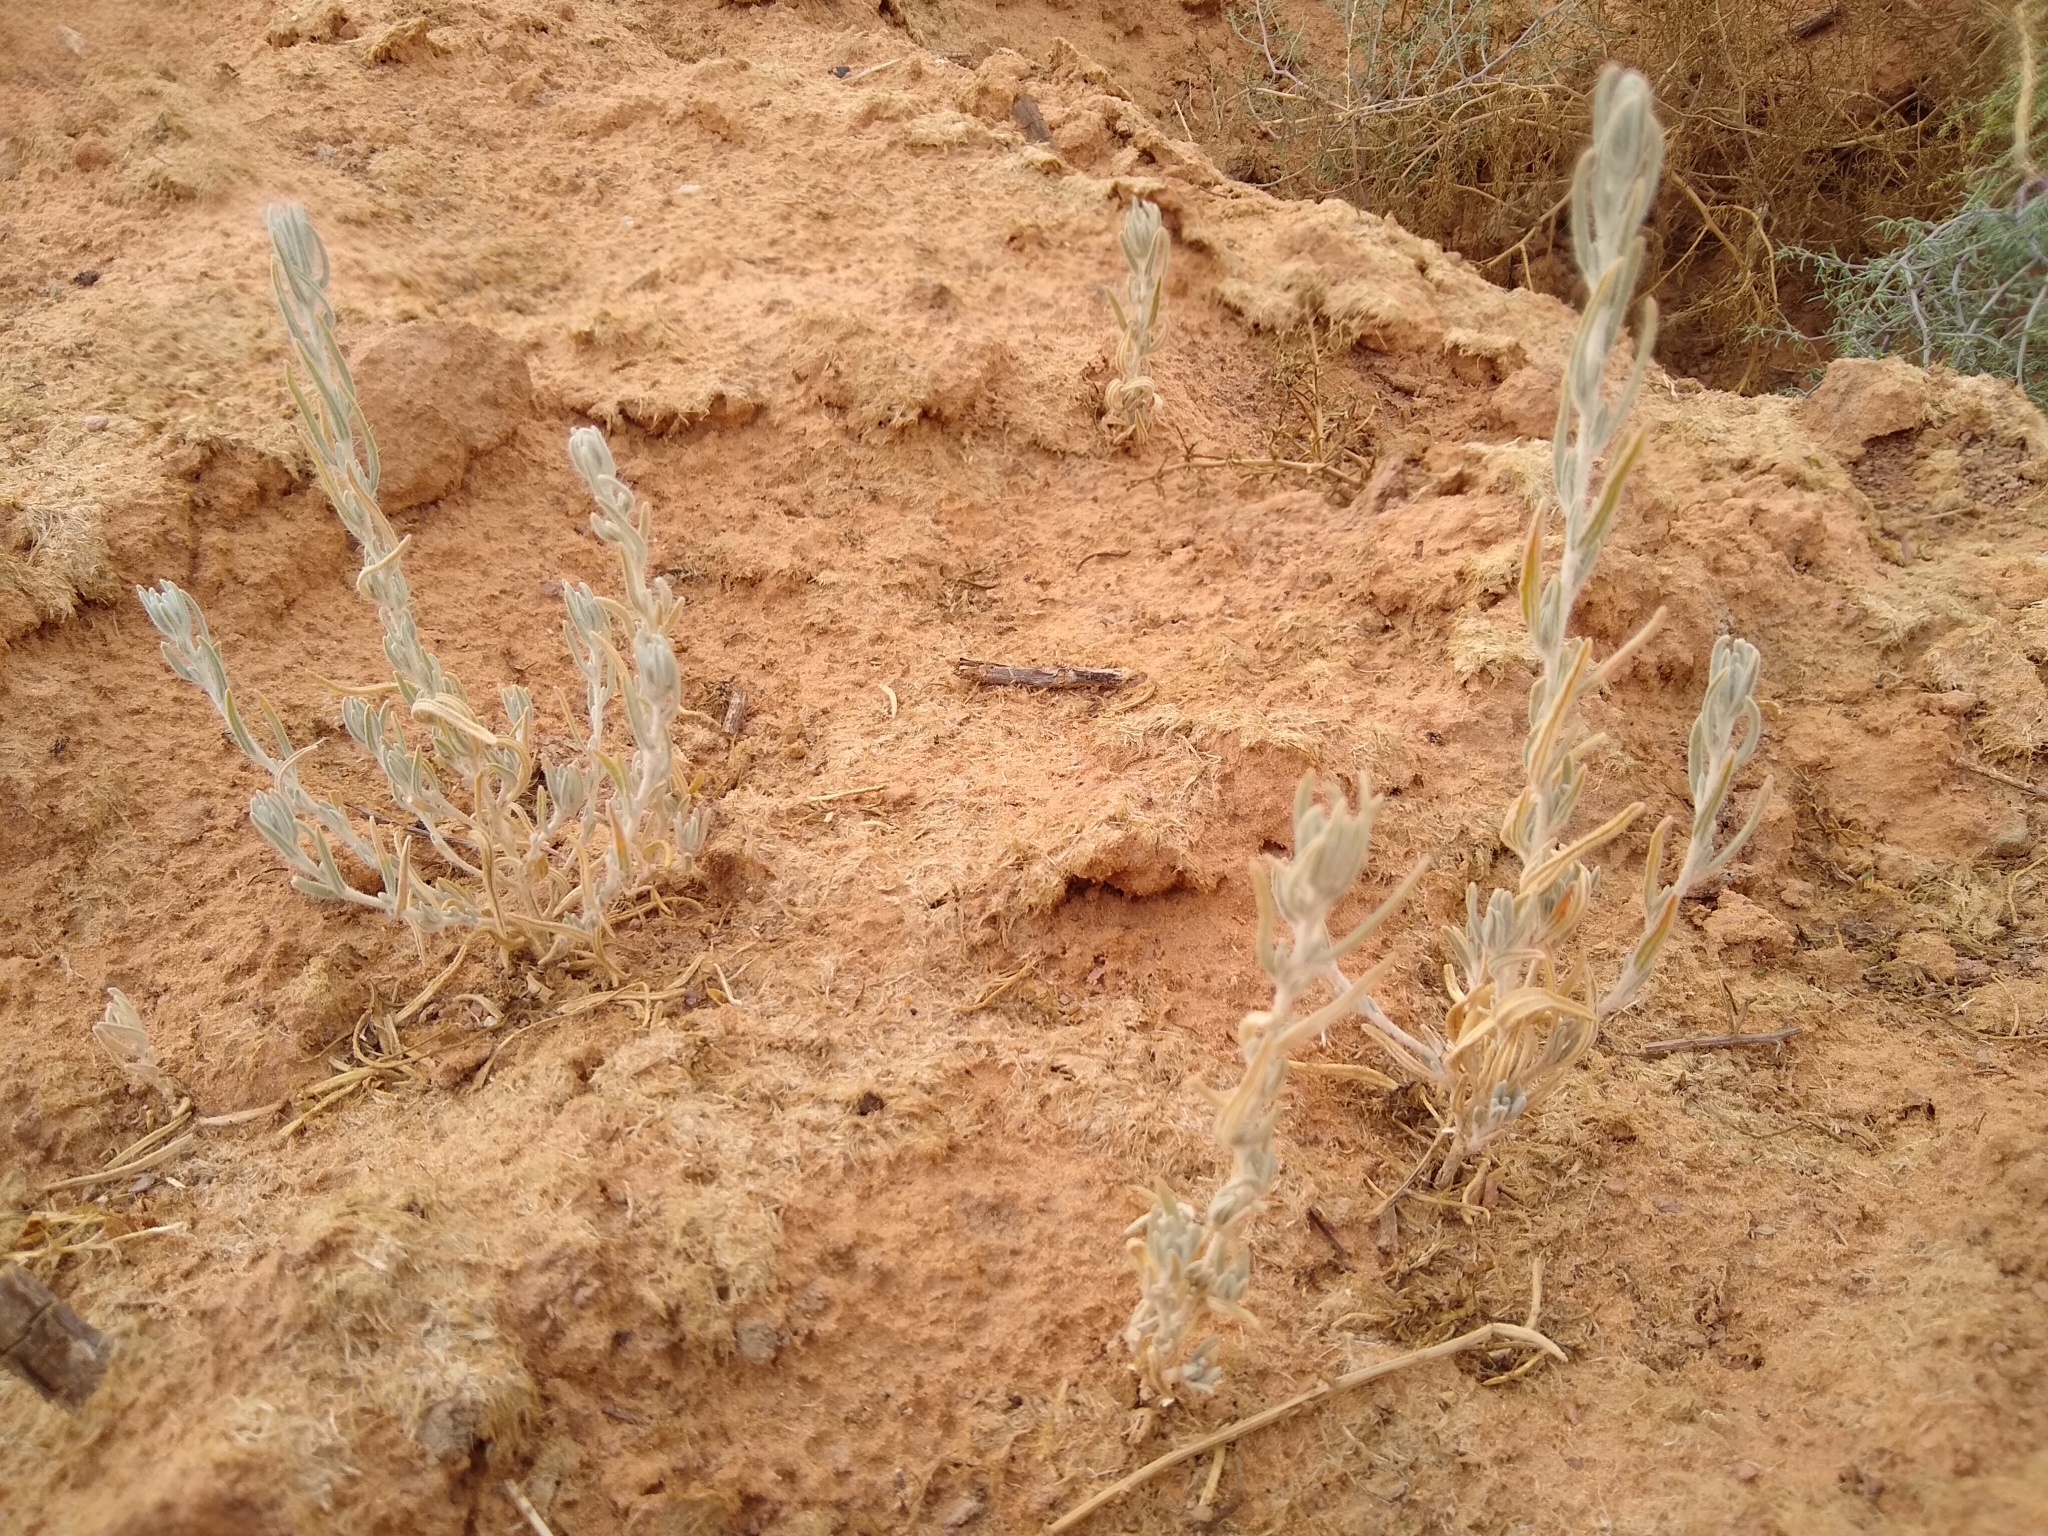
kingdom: Plantae
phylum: Tracheophyta
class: Magnoliopsida
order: Caryophyllales
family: Amaranthaceae
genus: Krascheninnikovia
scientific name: Krascheninnikovia lanata
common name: Winterfat
